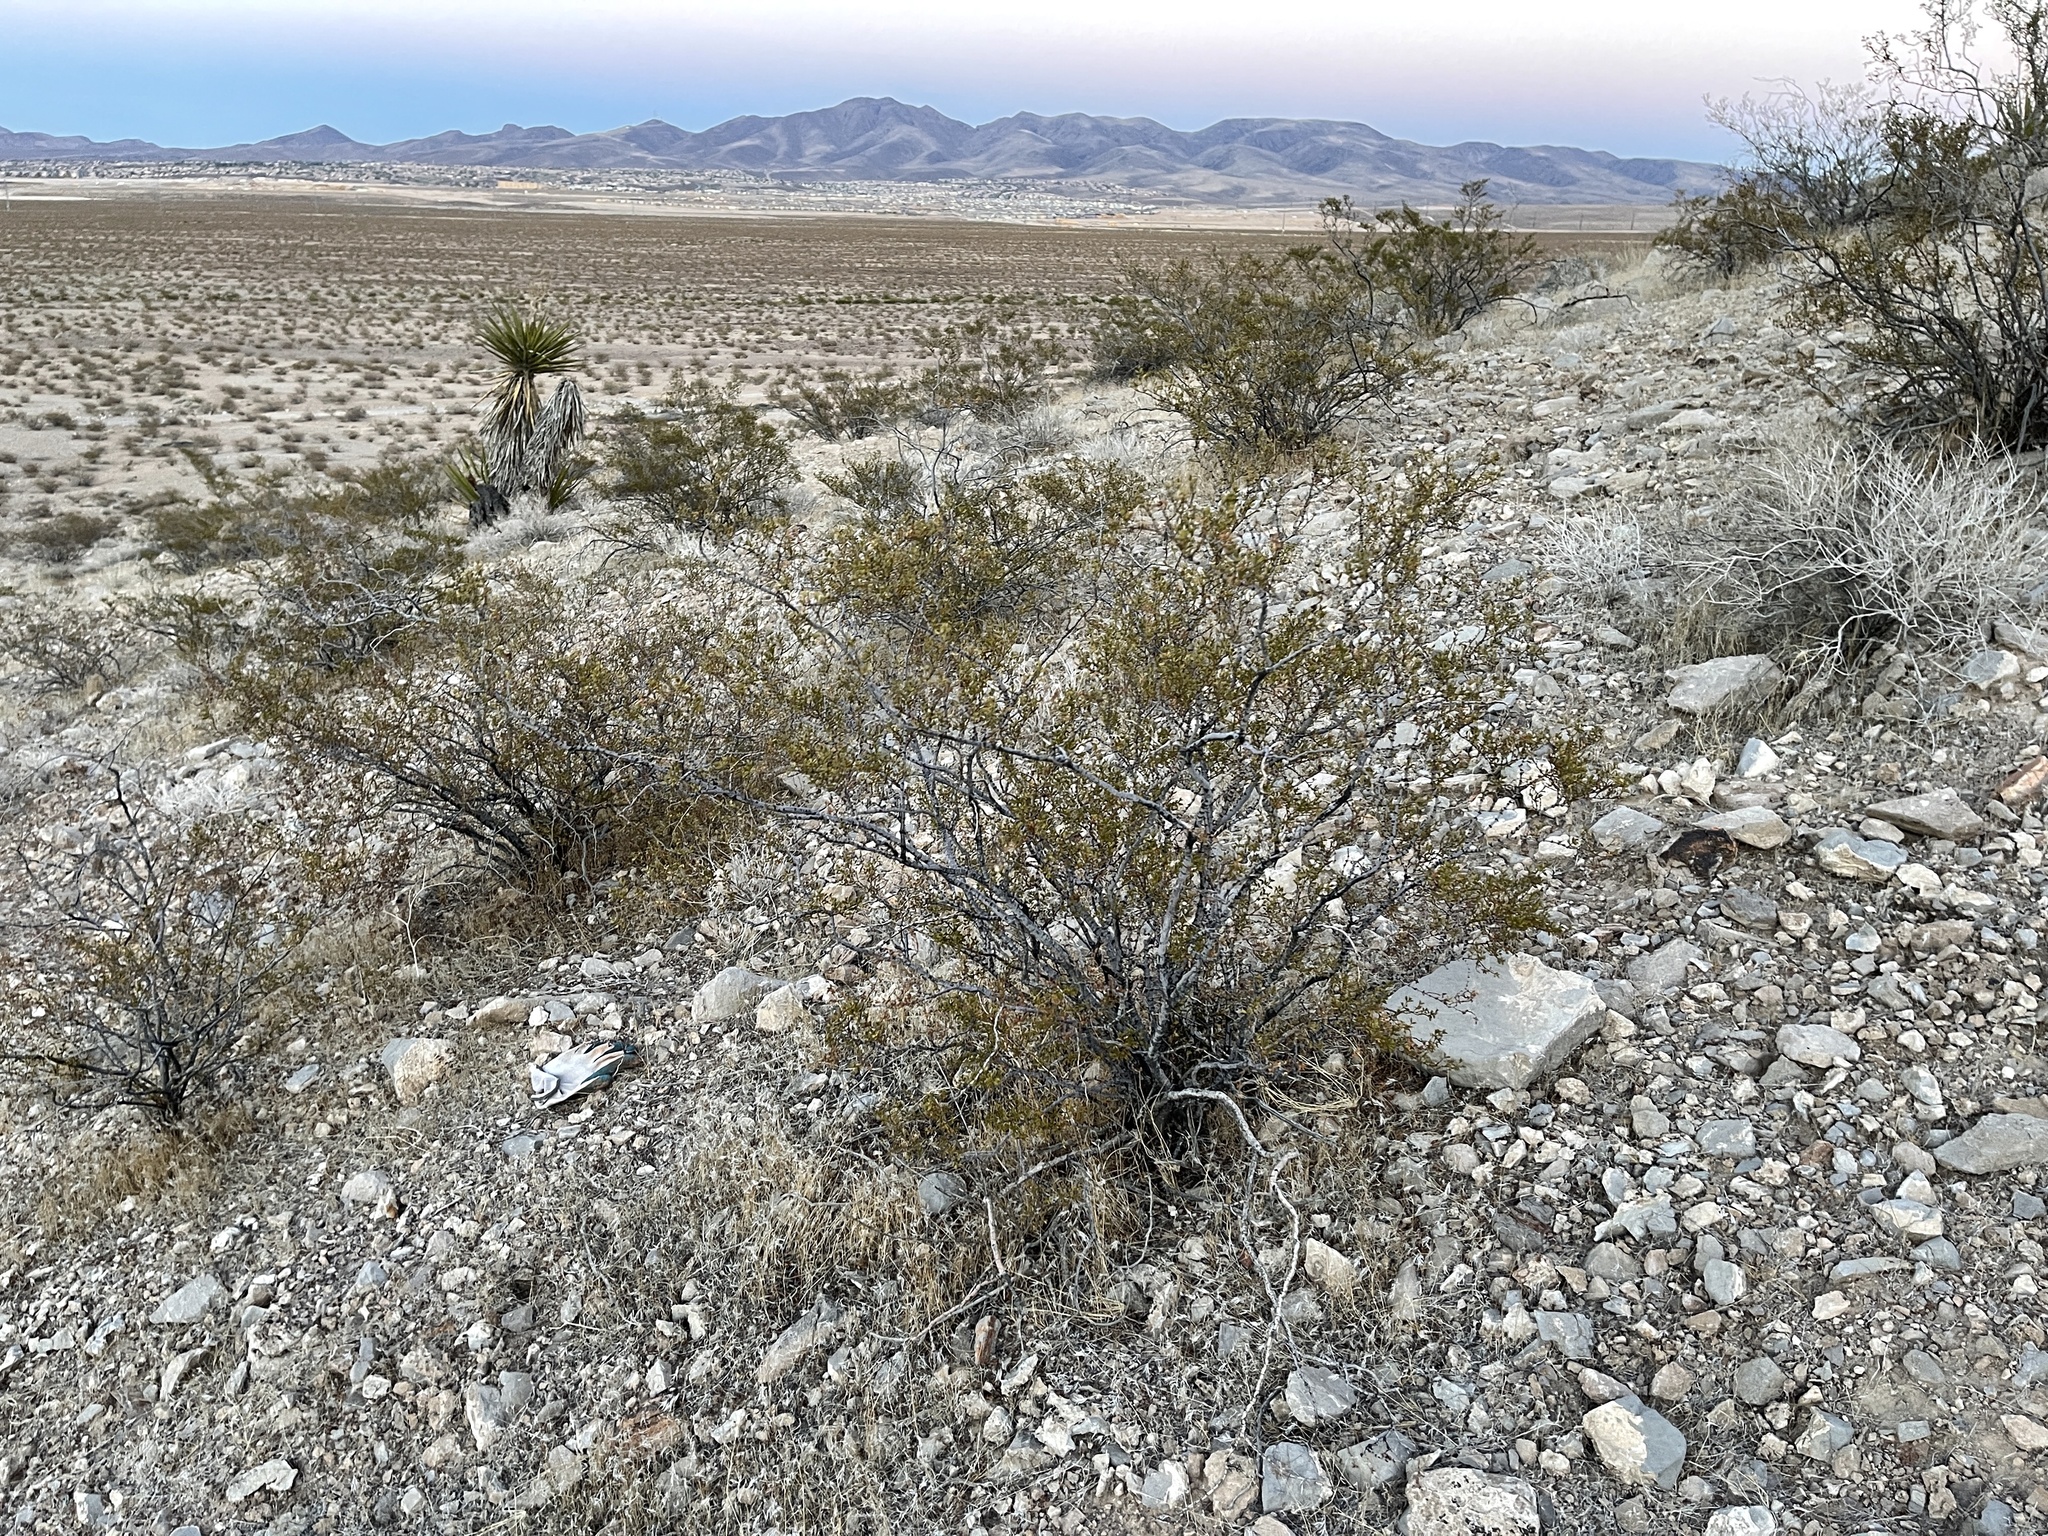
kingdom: Plantae
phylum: Tracheophyta
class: Magnoliopsida
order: Zygophyllales
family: Zygophyllaceae
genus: Larrea
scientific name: Larrea tridentata
